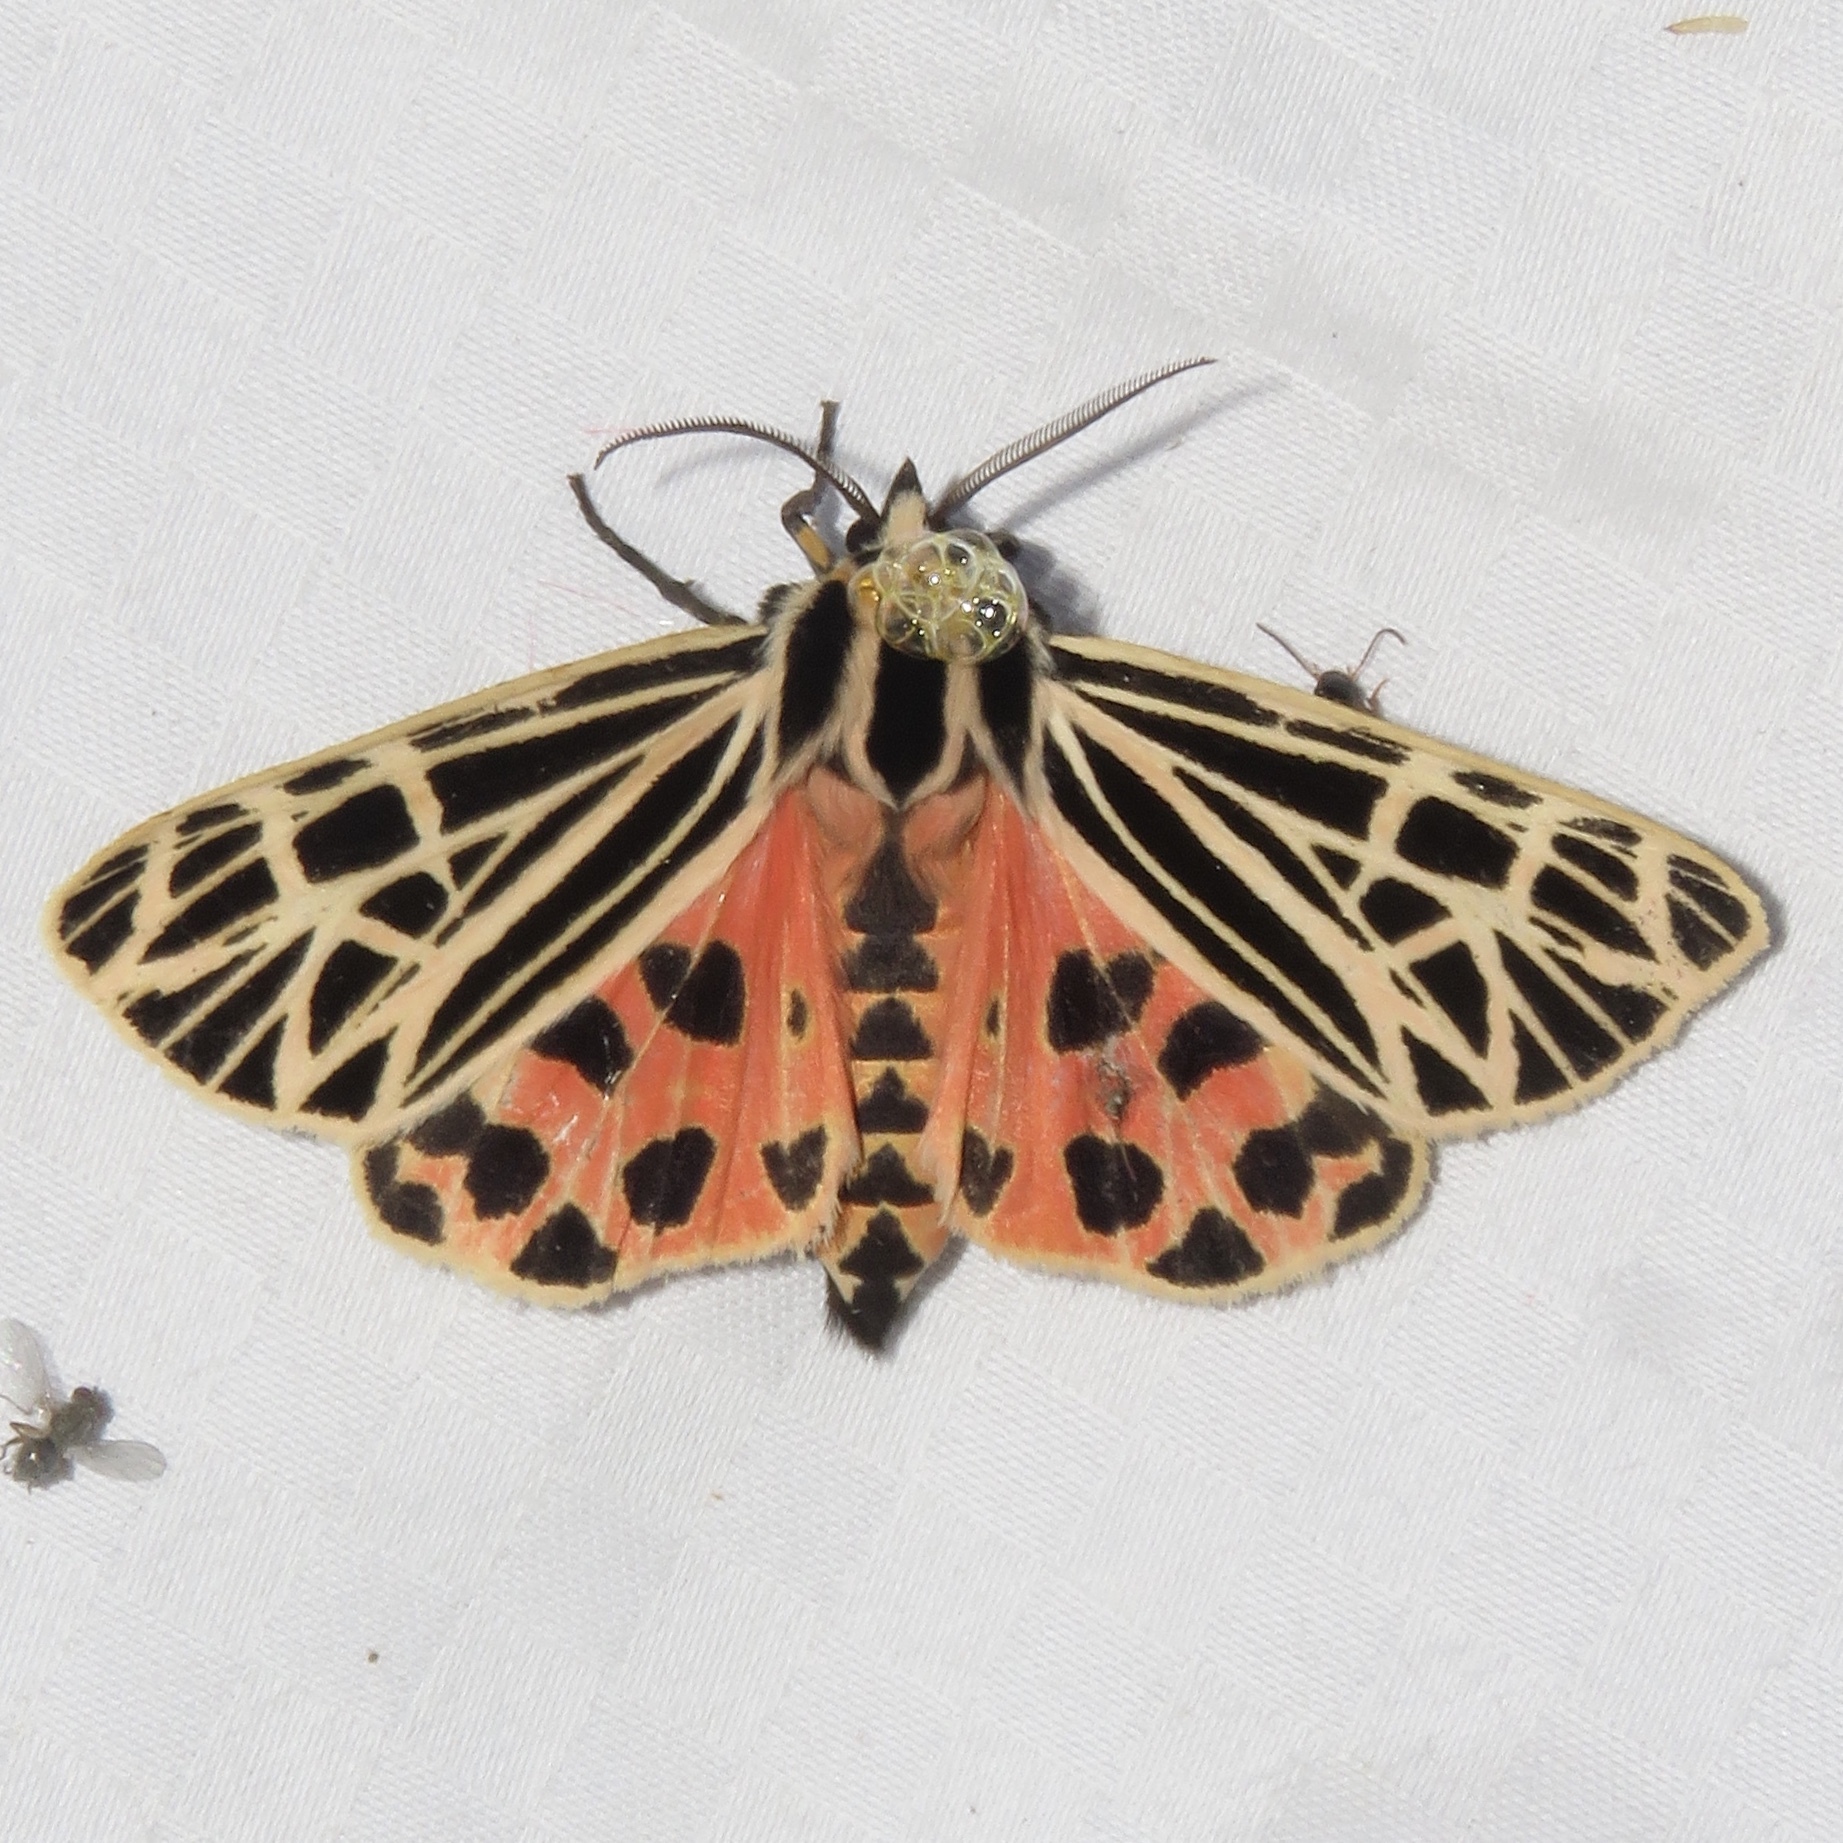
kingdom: Animalia
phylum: Arthropoda
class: Insecta
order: Lepidoptera
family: Erebidae
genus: Grammia
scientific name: Grammia virgo
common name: Virgin tiger moth
